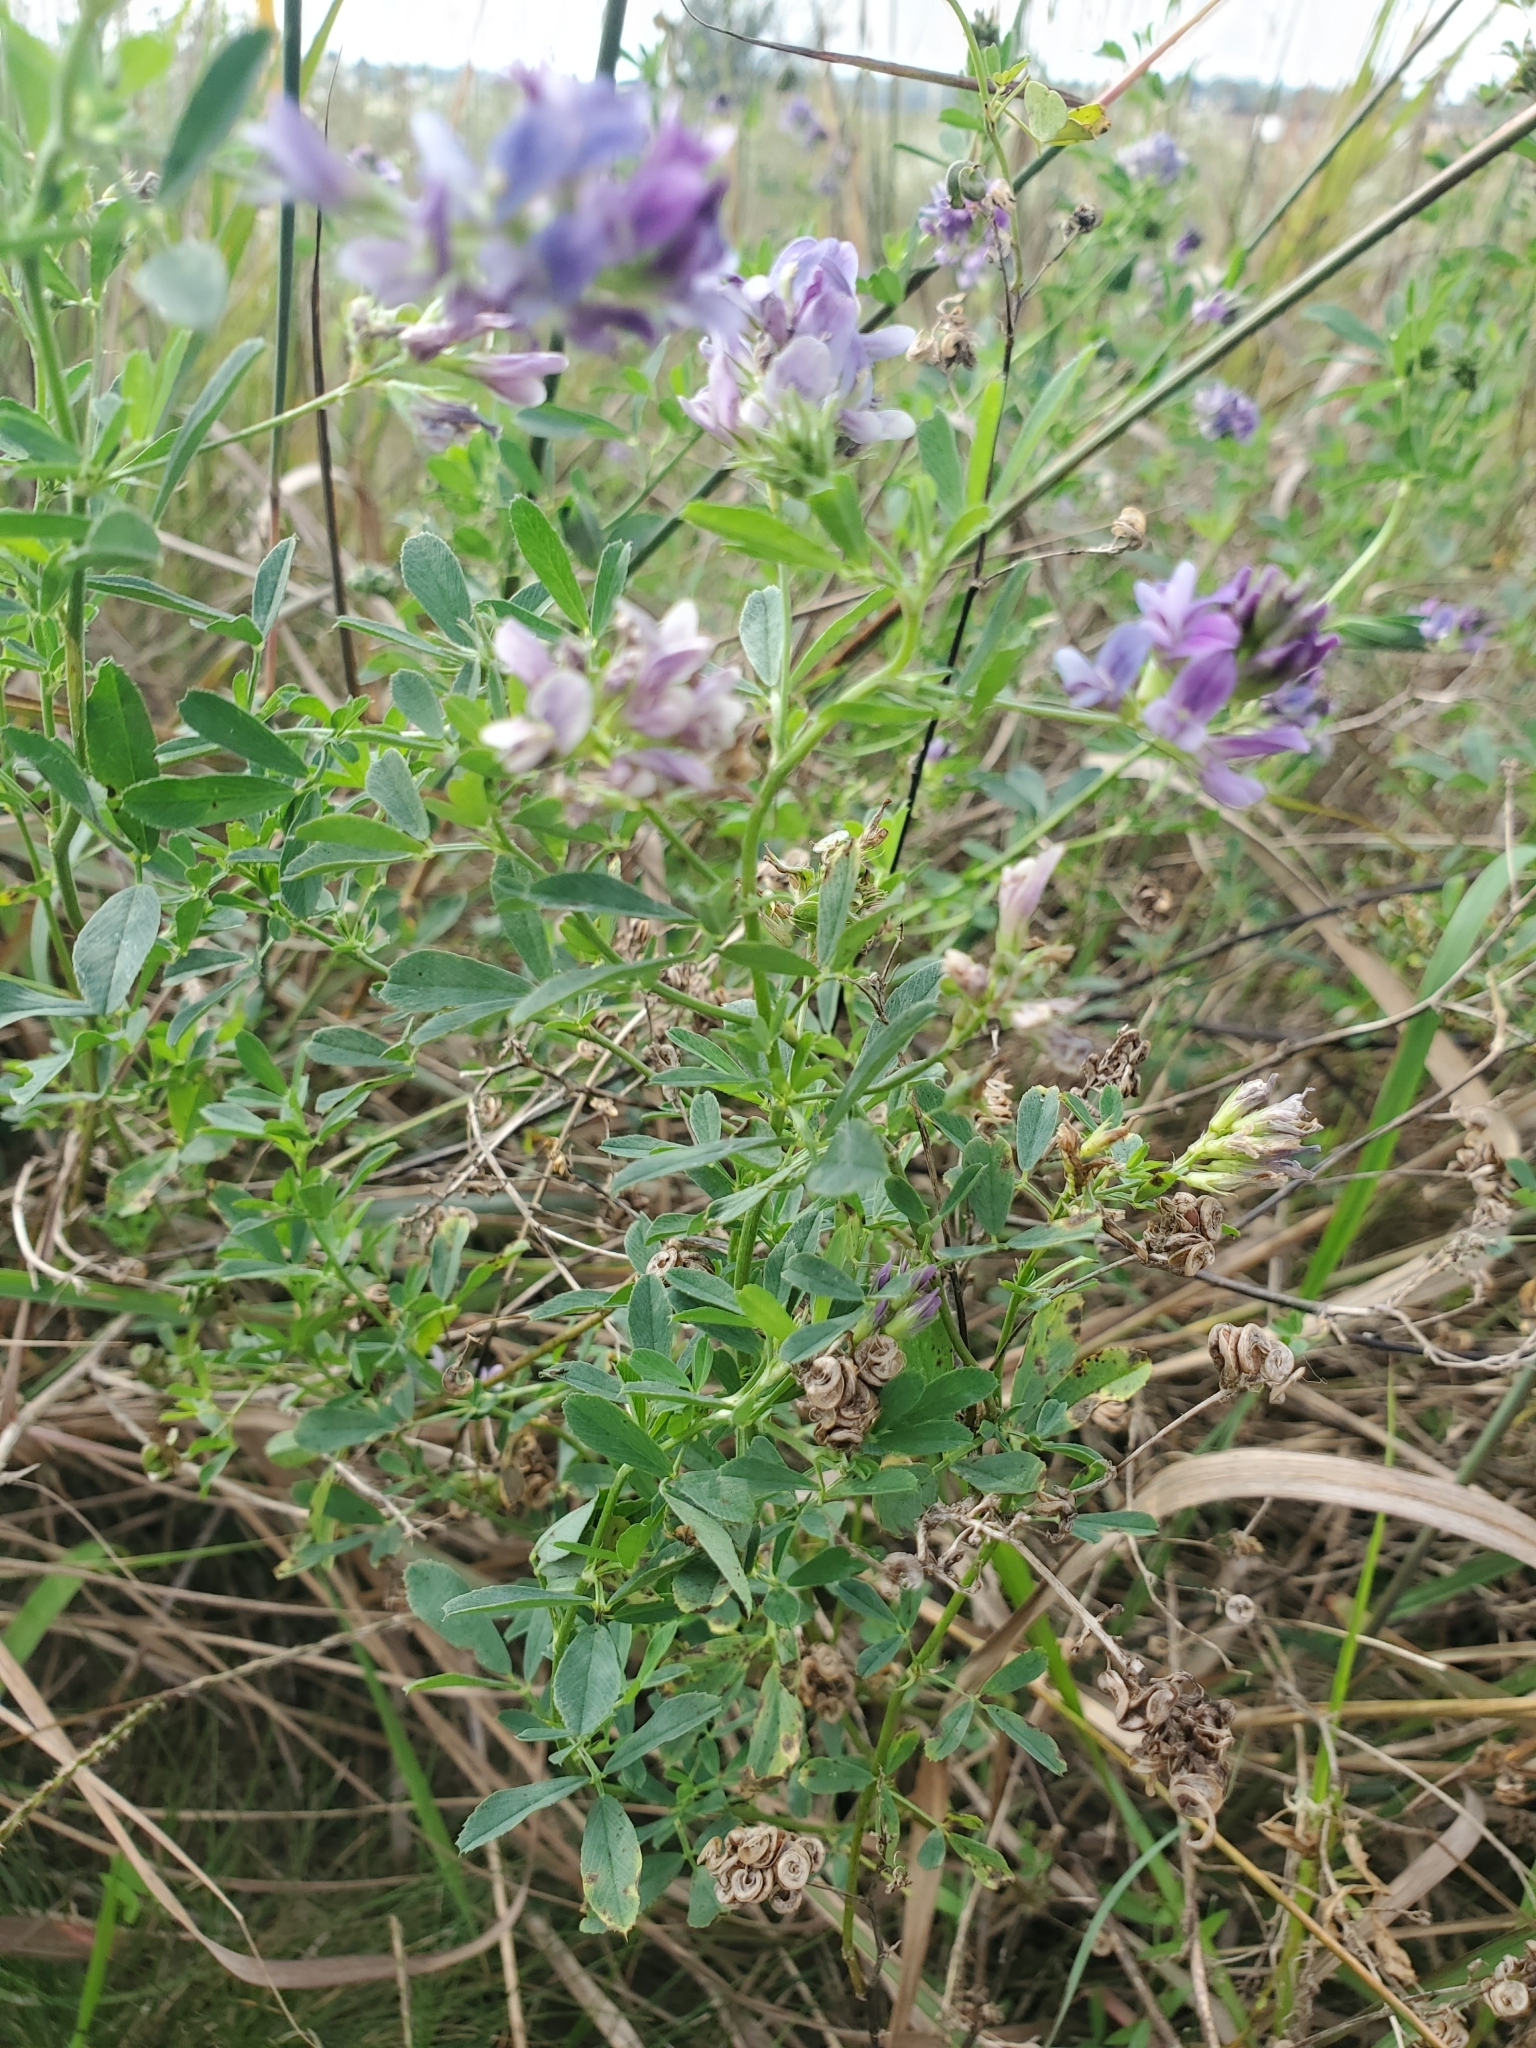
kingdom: Plantae
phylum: Tracheophyta
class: Magnoliopsida
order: Fabales
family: Fabaceae
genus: Medicago
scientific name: Medicago sativa
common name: Alfalfa
